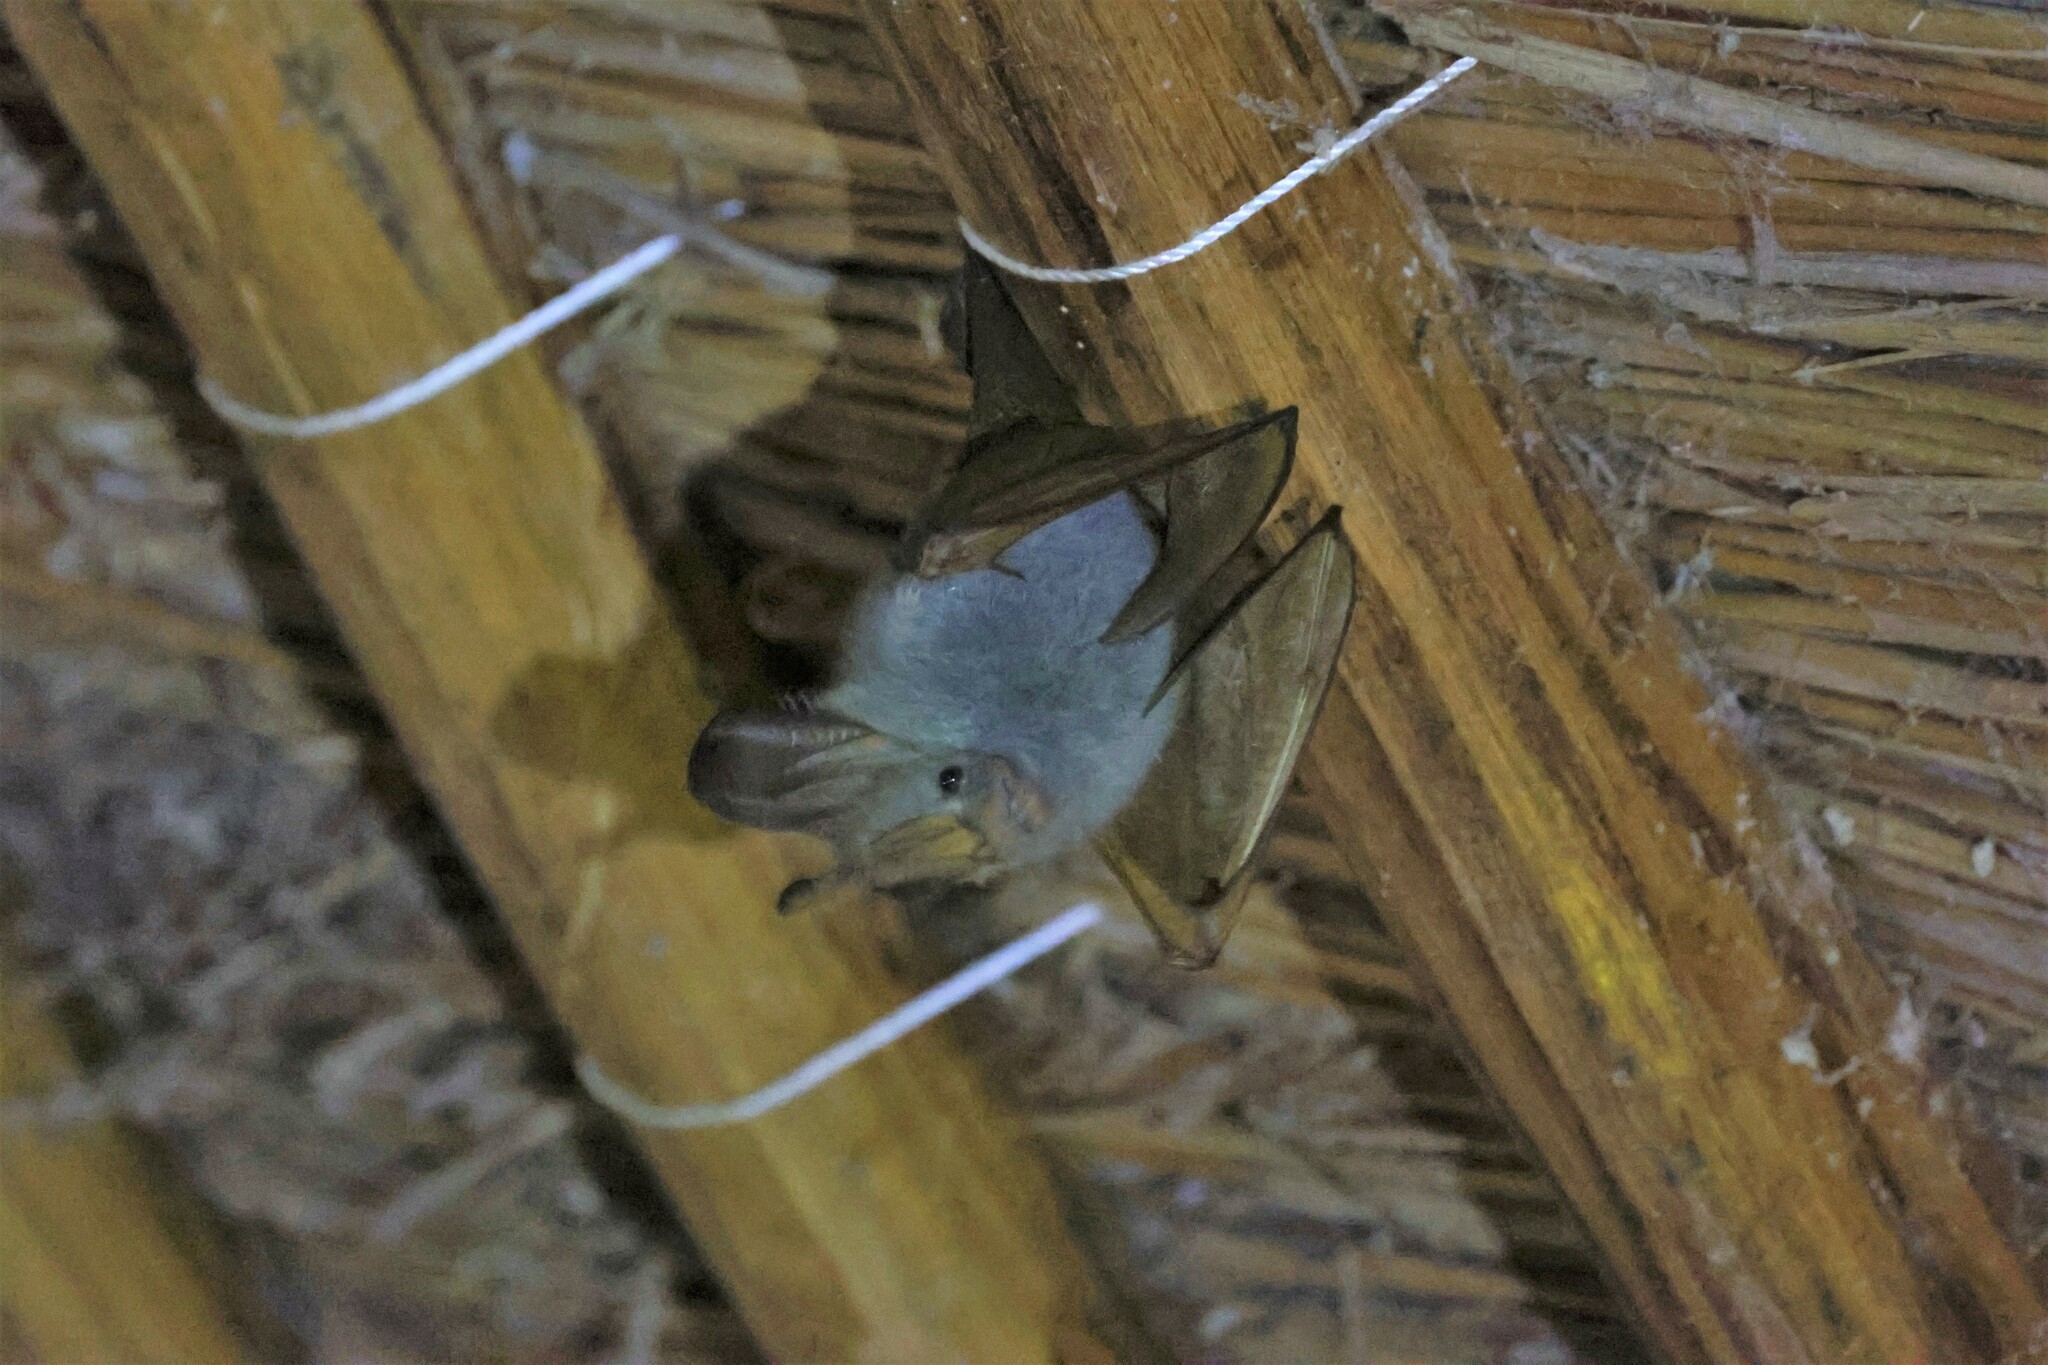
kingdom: Animalia
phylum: Chordata
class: Mammalia
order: Chiroptera
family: Megadermatidae
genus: Lavia
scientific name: Lavia frons
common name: Yellow-winged bat
